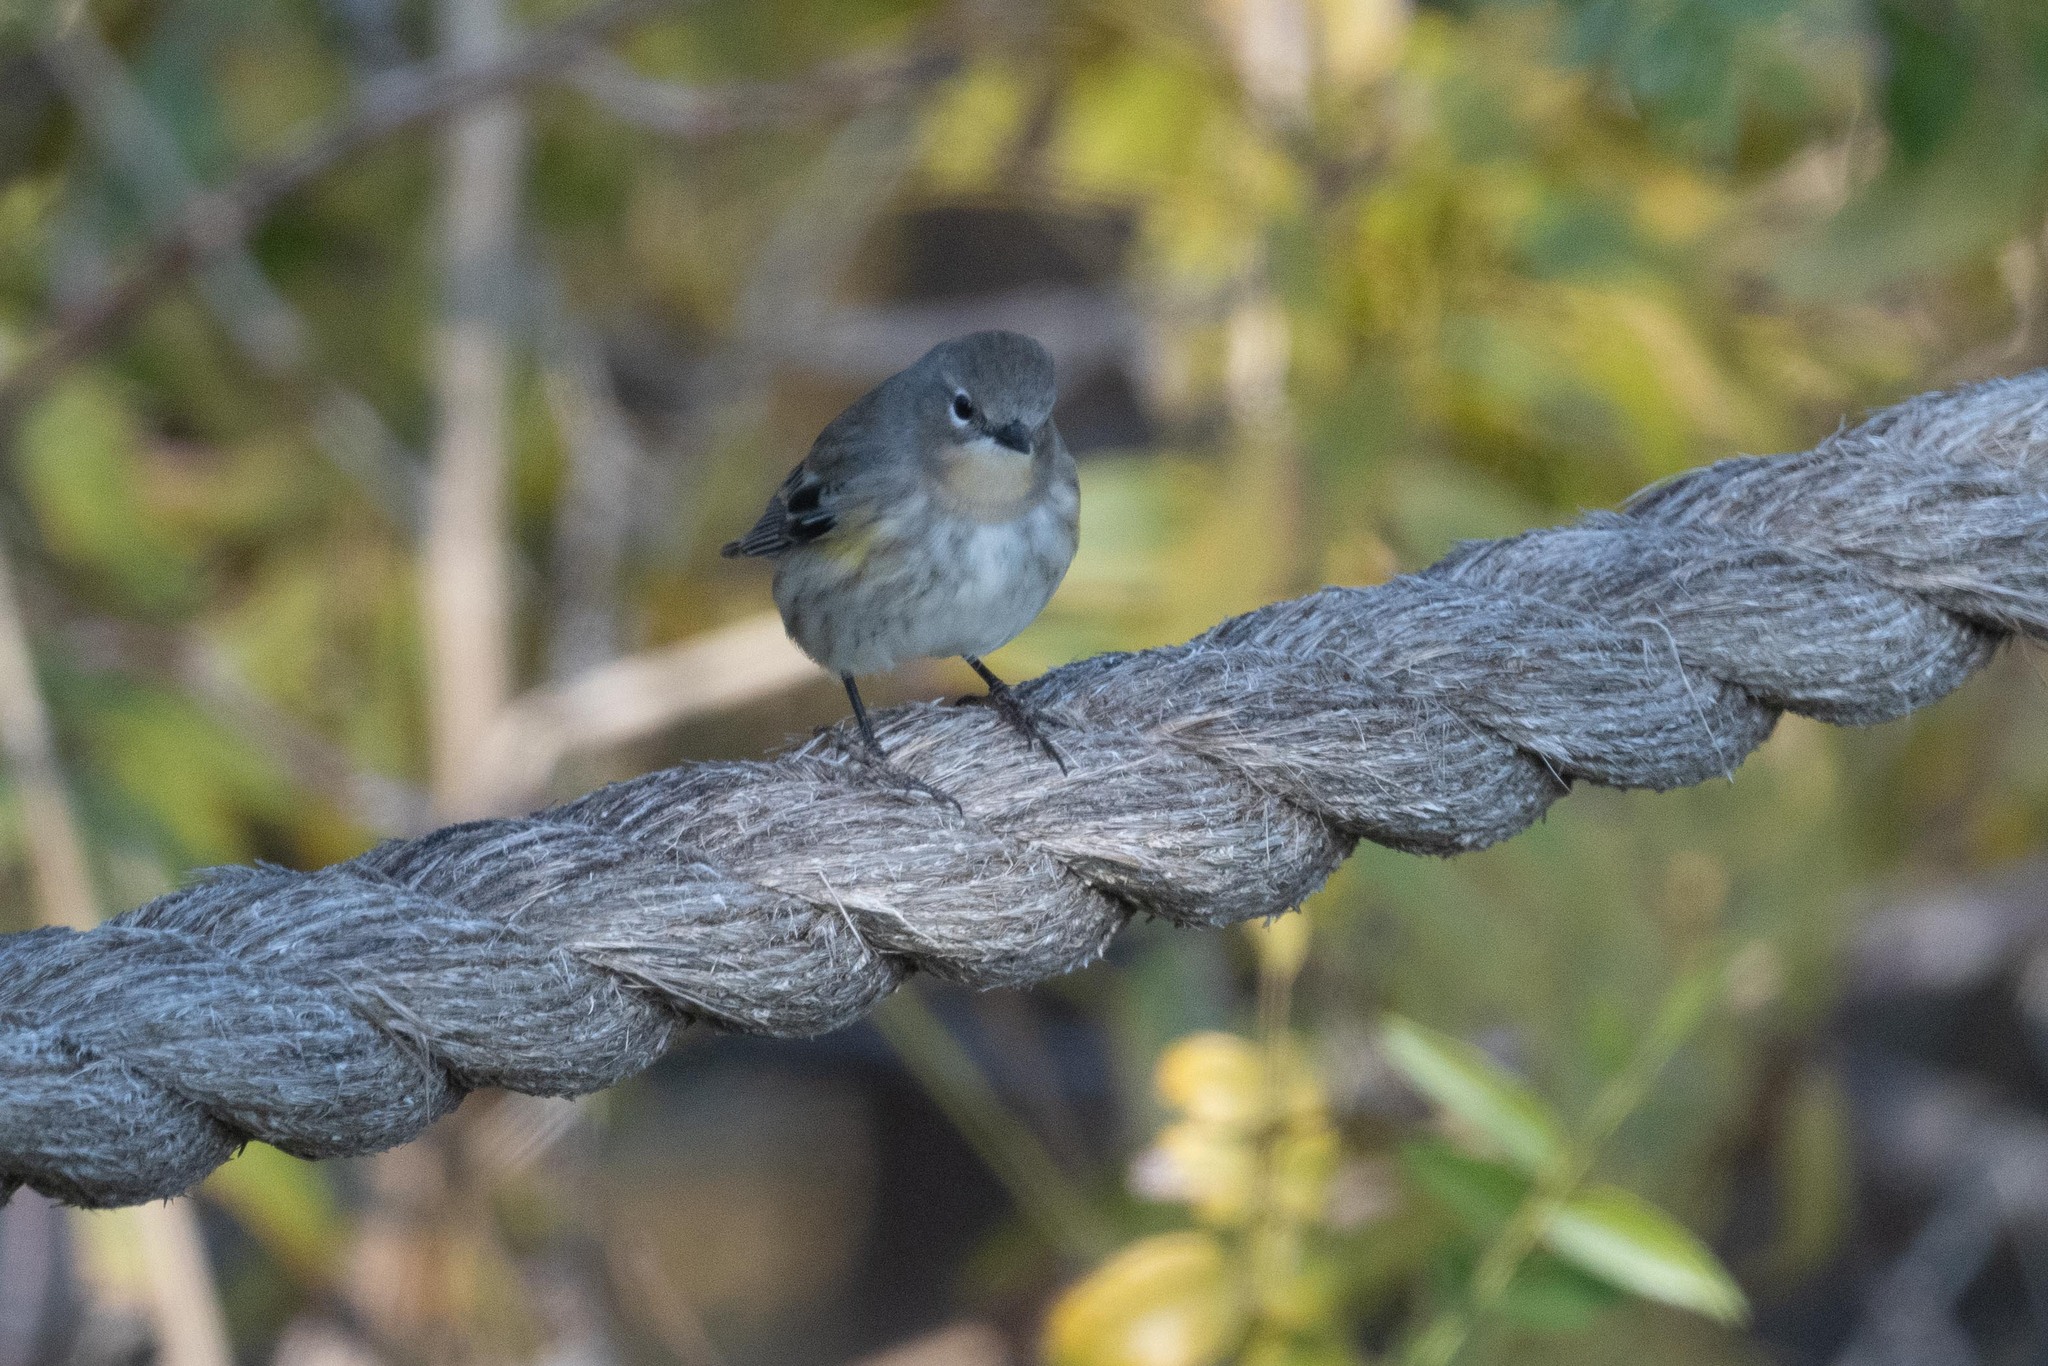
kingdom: Animalia
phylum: Chordata
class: Aves
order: Passeriformes
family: Parulidae
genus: Setophaga
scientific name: Setophaga coronata
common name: Myrtle warbler
